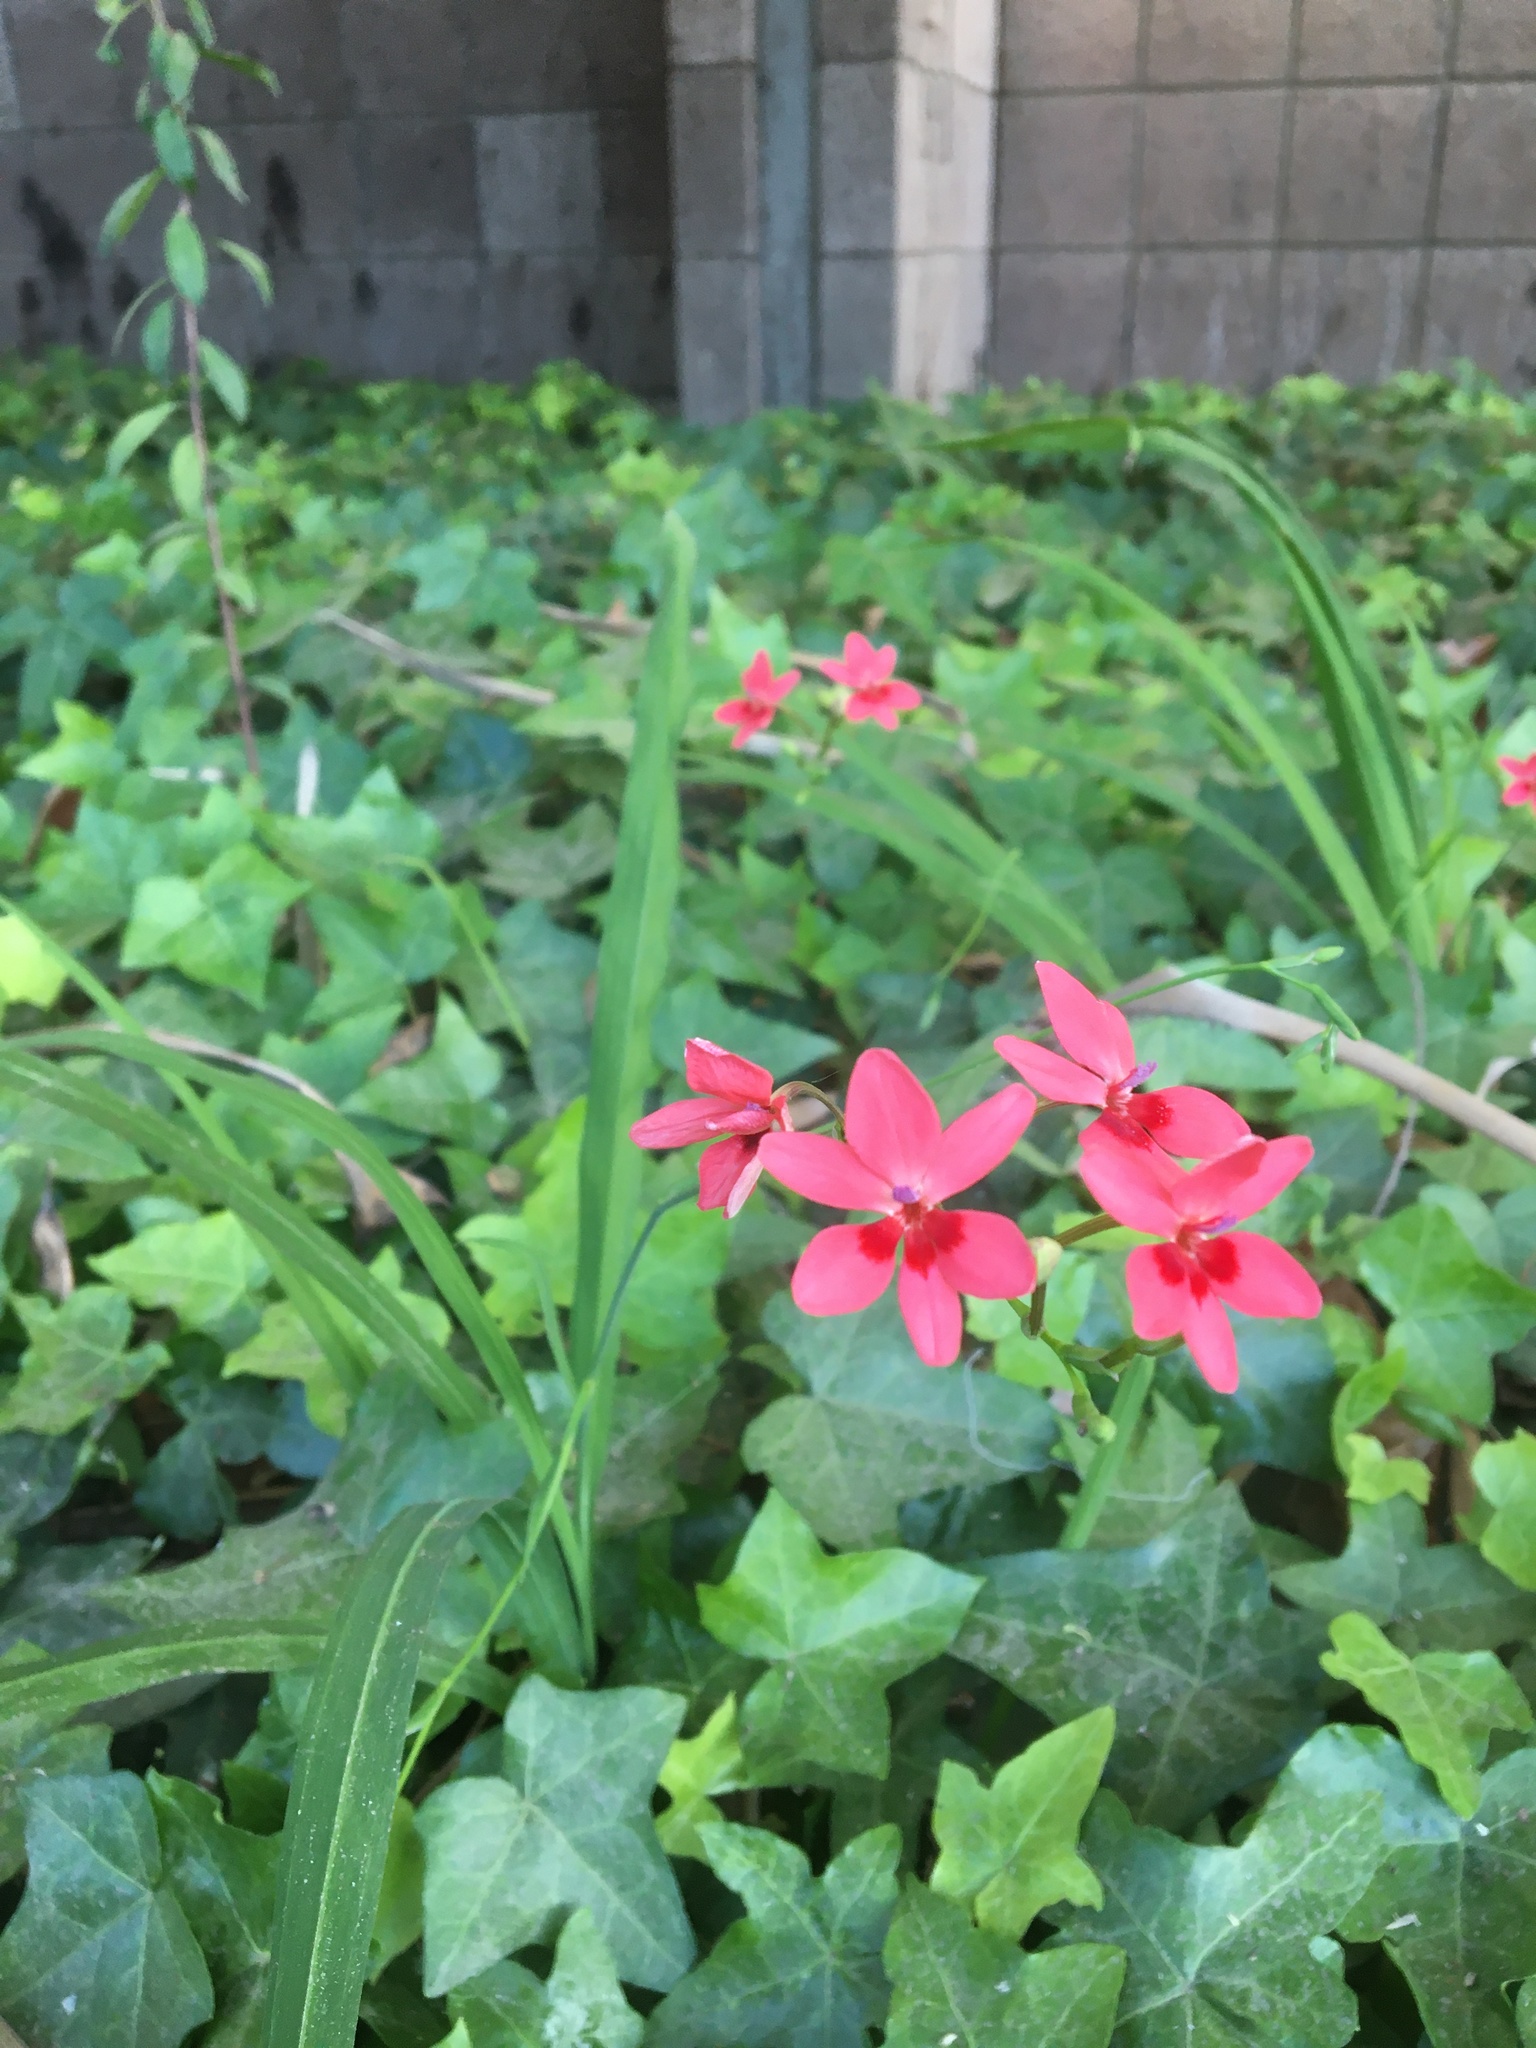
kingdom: Plantae
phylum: Tracheophyta
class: Liliopsida
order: Asparagales
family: Iridaceae
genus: Freesia
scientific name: Freesia laxa
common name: False freesia
